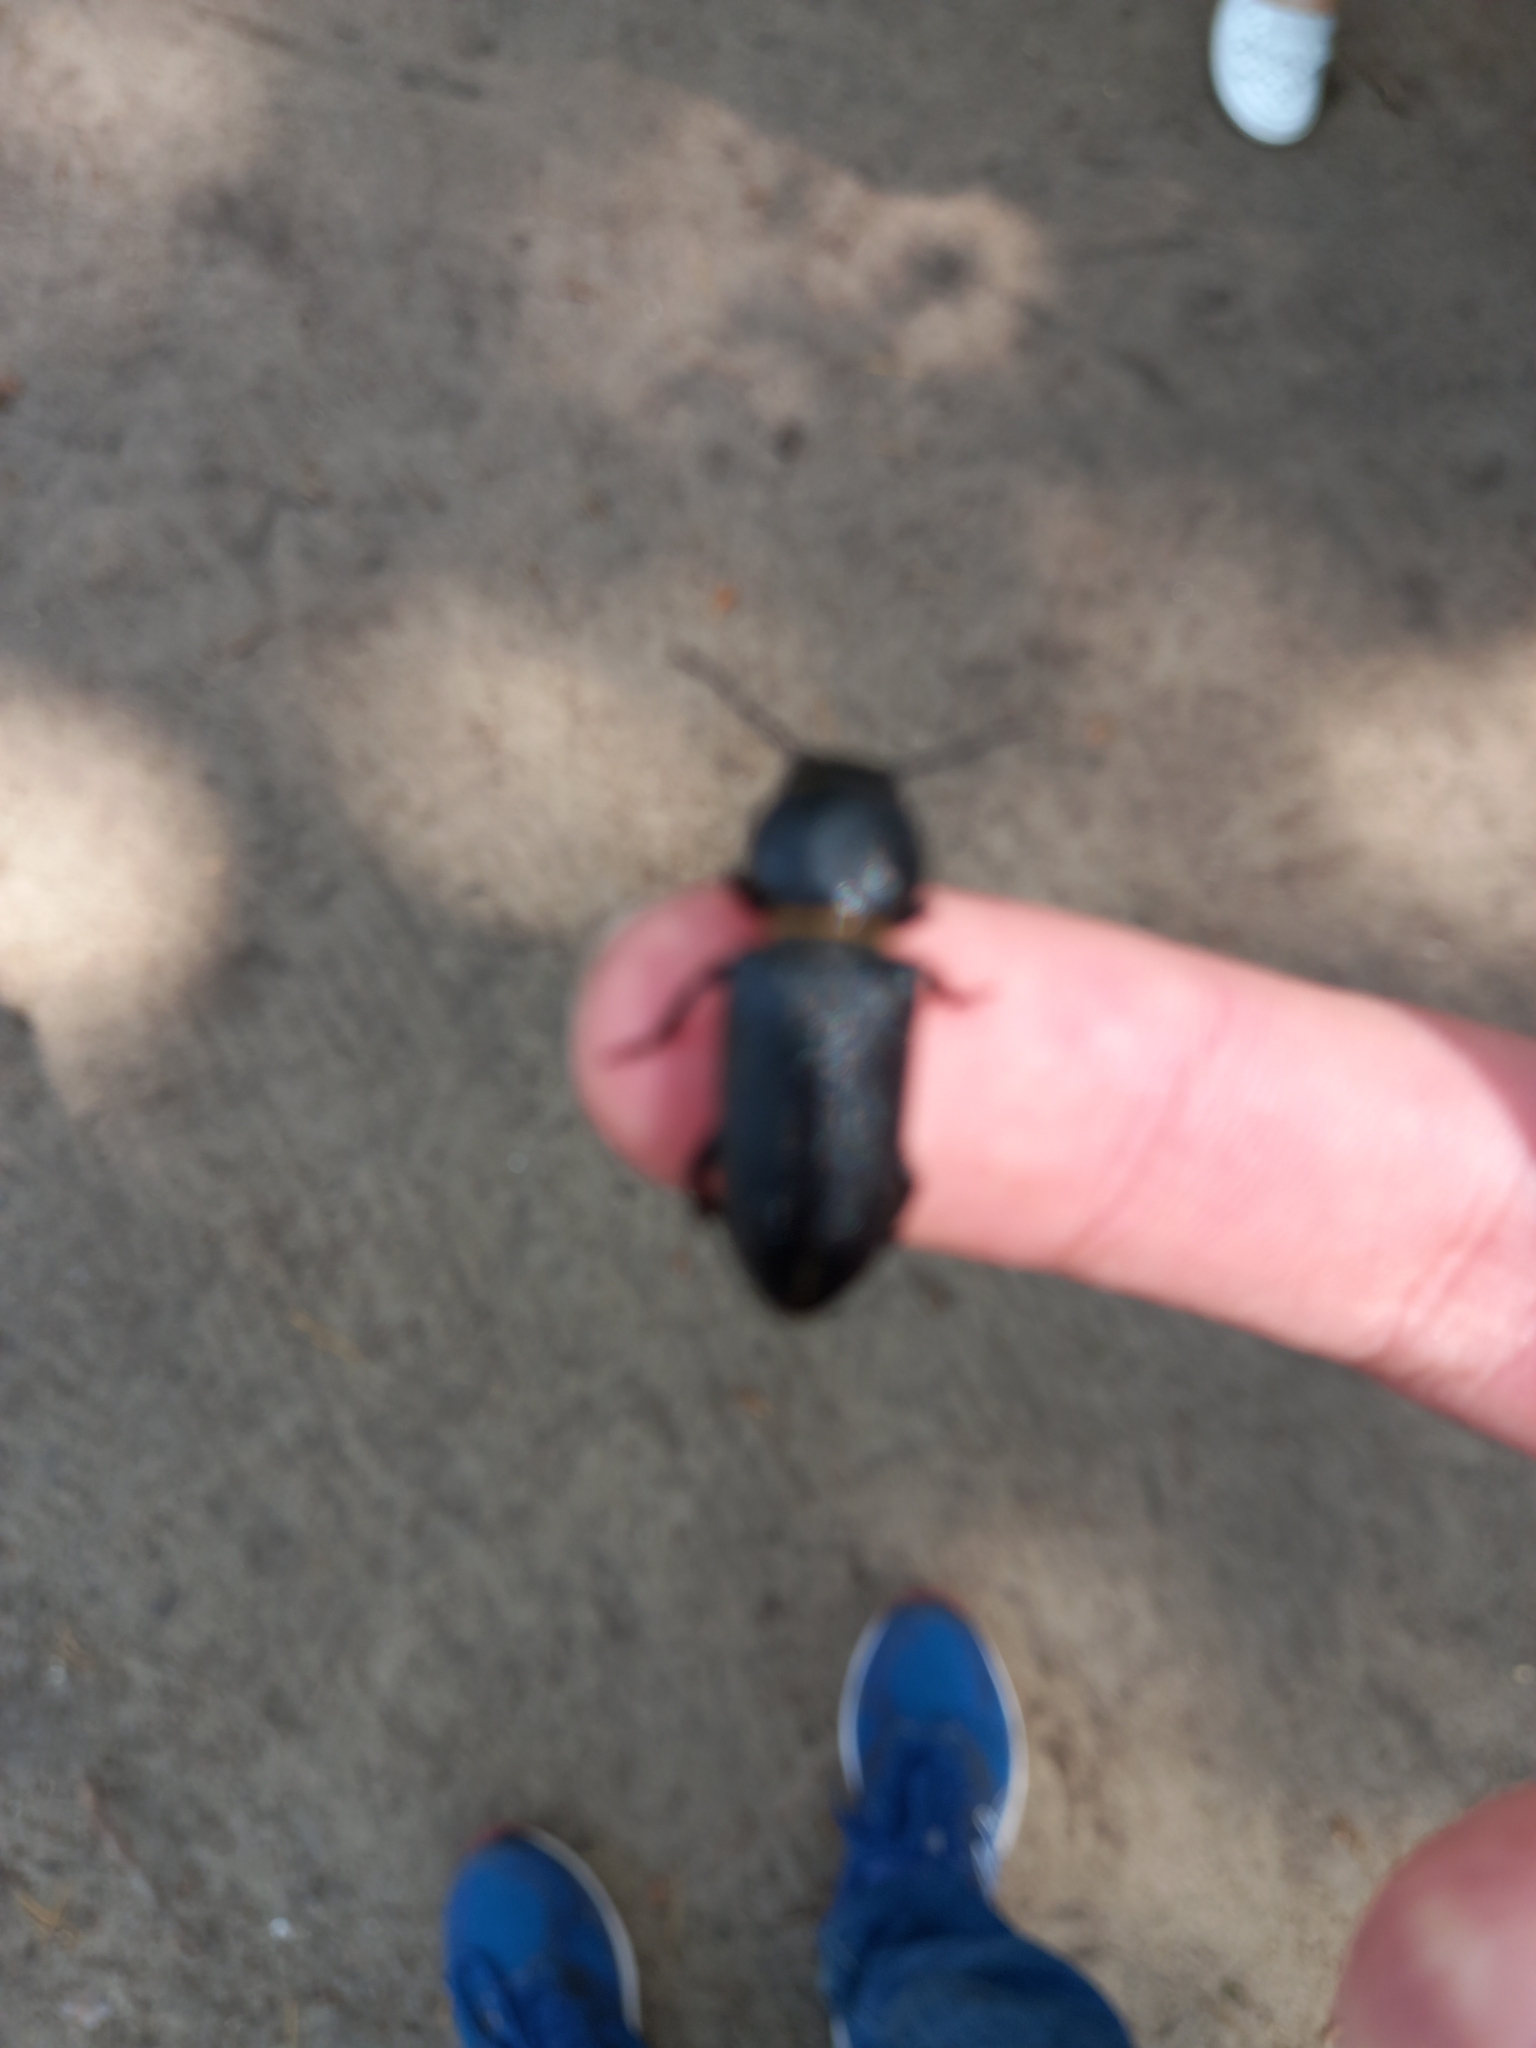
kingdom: Animalia
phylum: Arthropoda
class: Insecta
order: Coleoptera
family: Cerambycidae
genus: Spondylis
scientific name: Spondylis buprestoides
